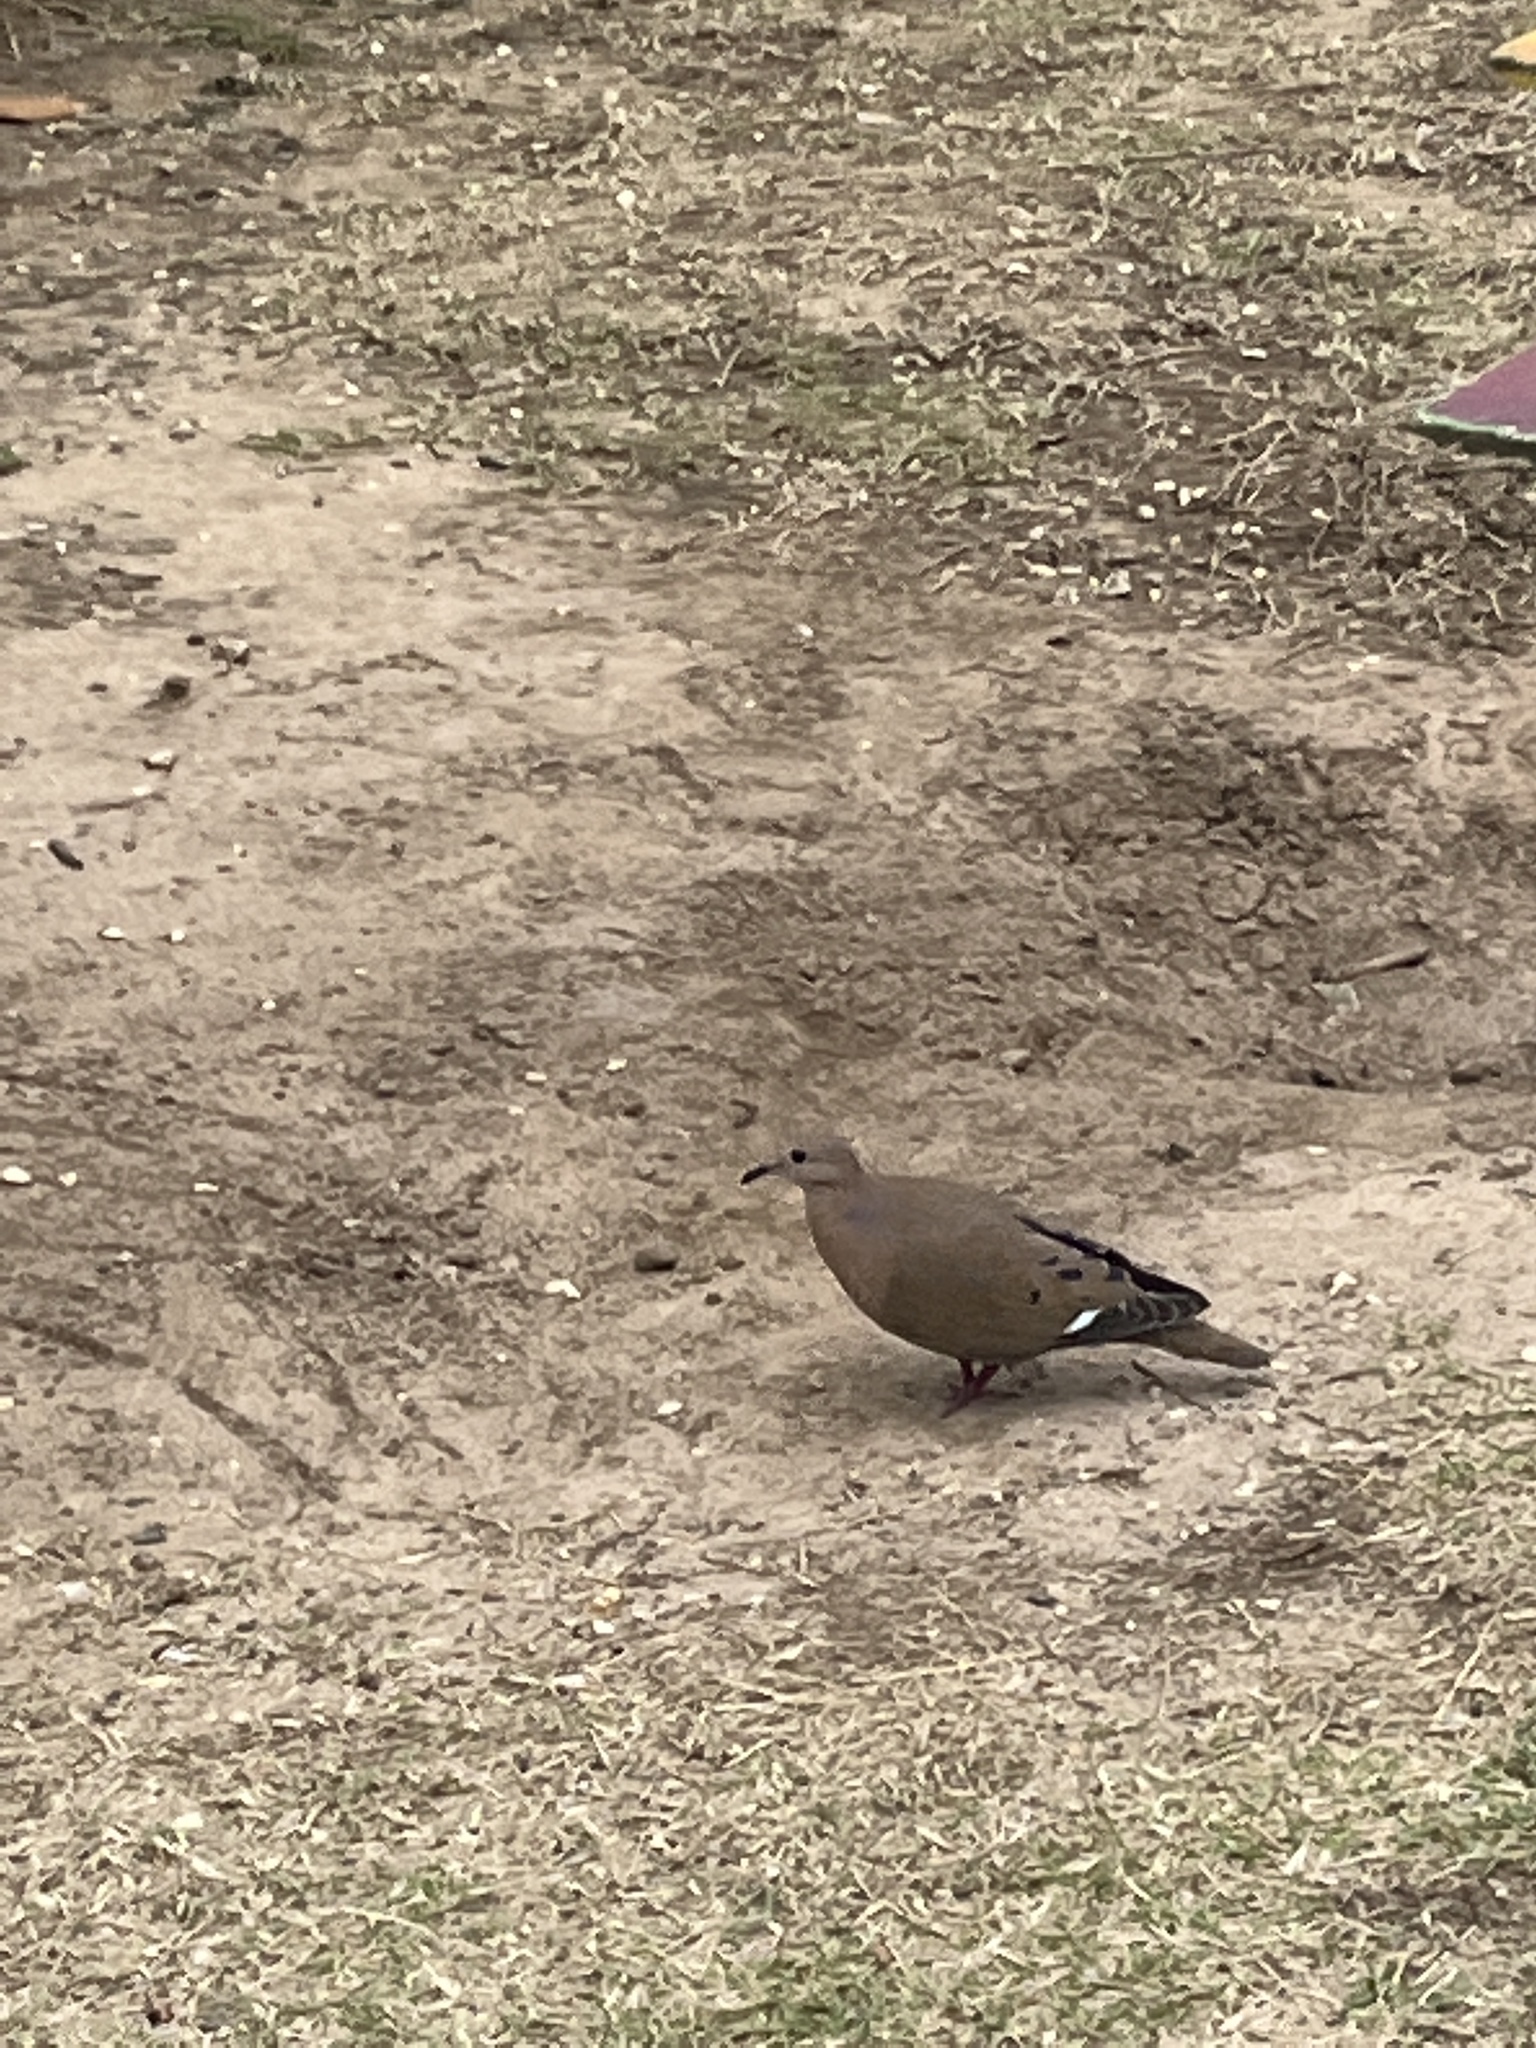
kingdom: Animalia
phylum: Chordata
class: Aves
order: Columbiformes
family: Columbidae
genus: Zenaida
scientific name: Zenaida aurita
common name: Zenaida dove
